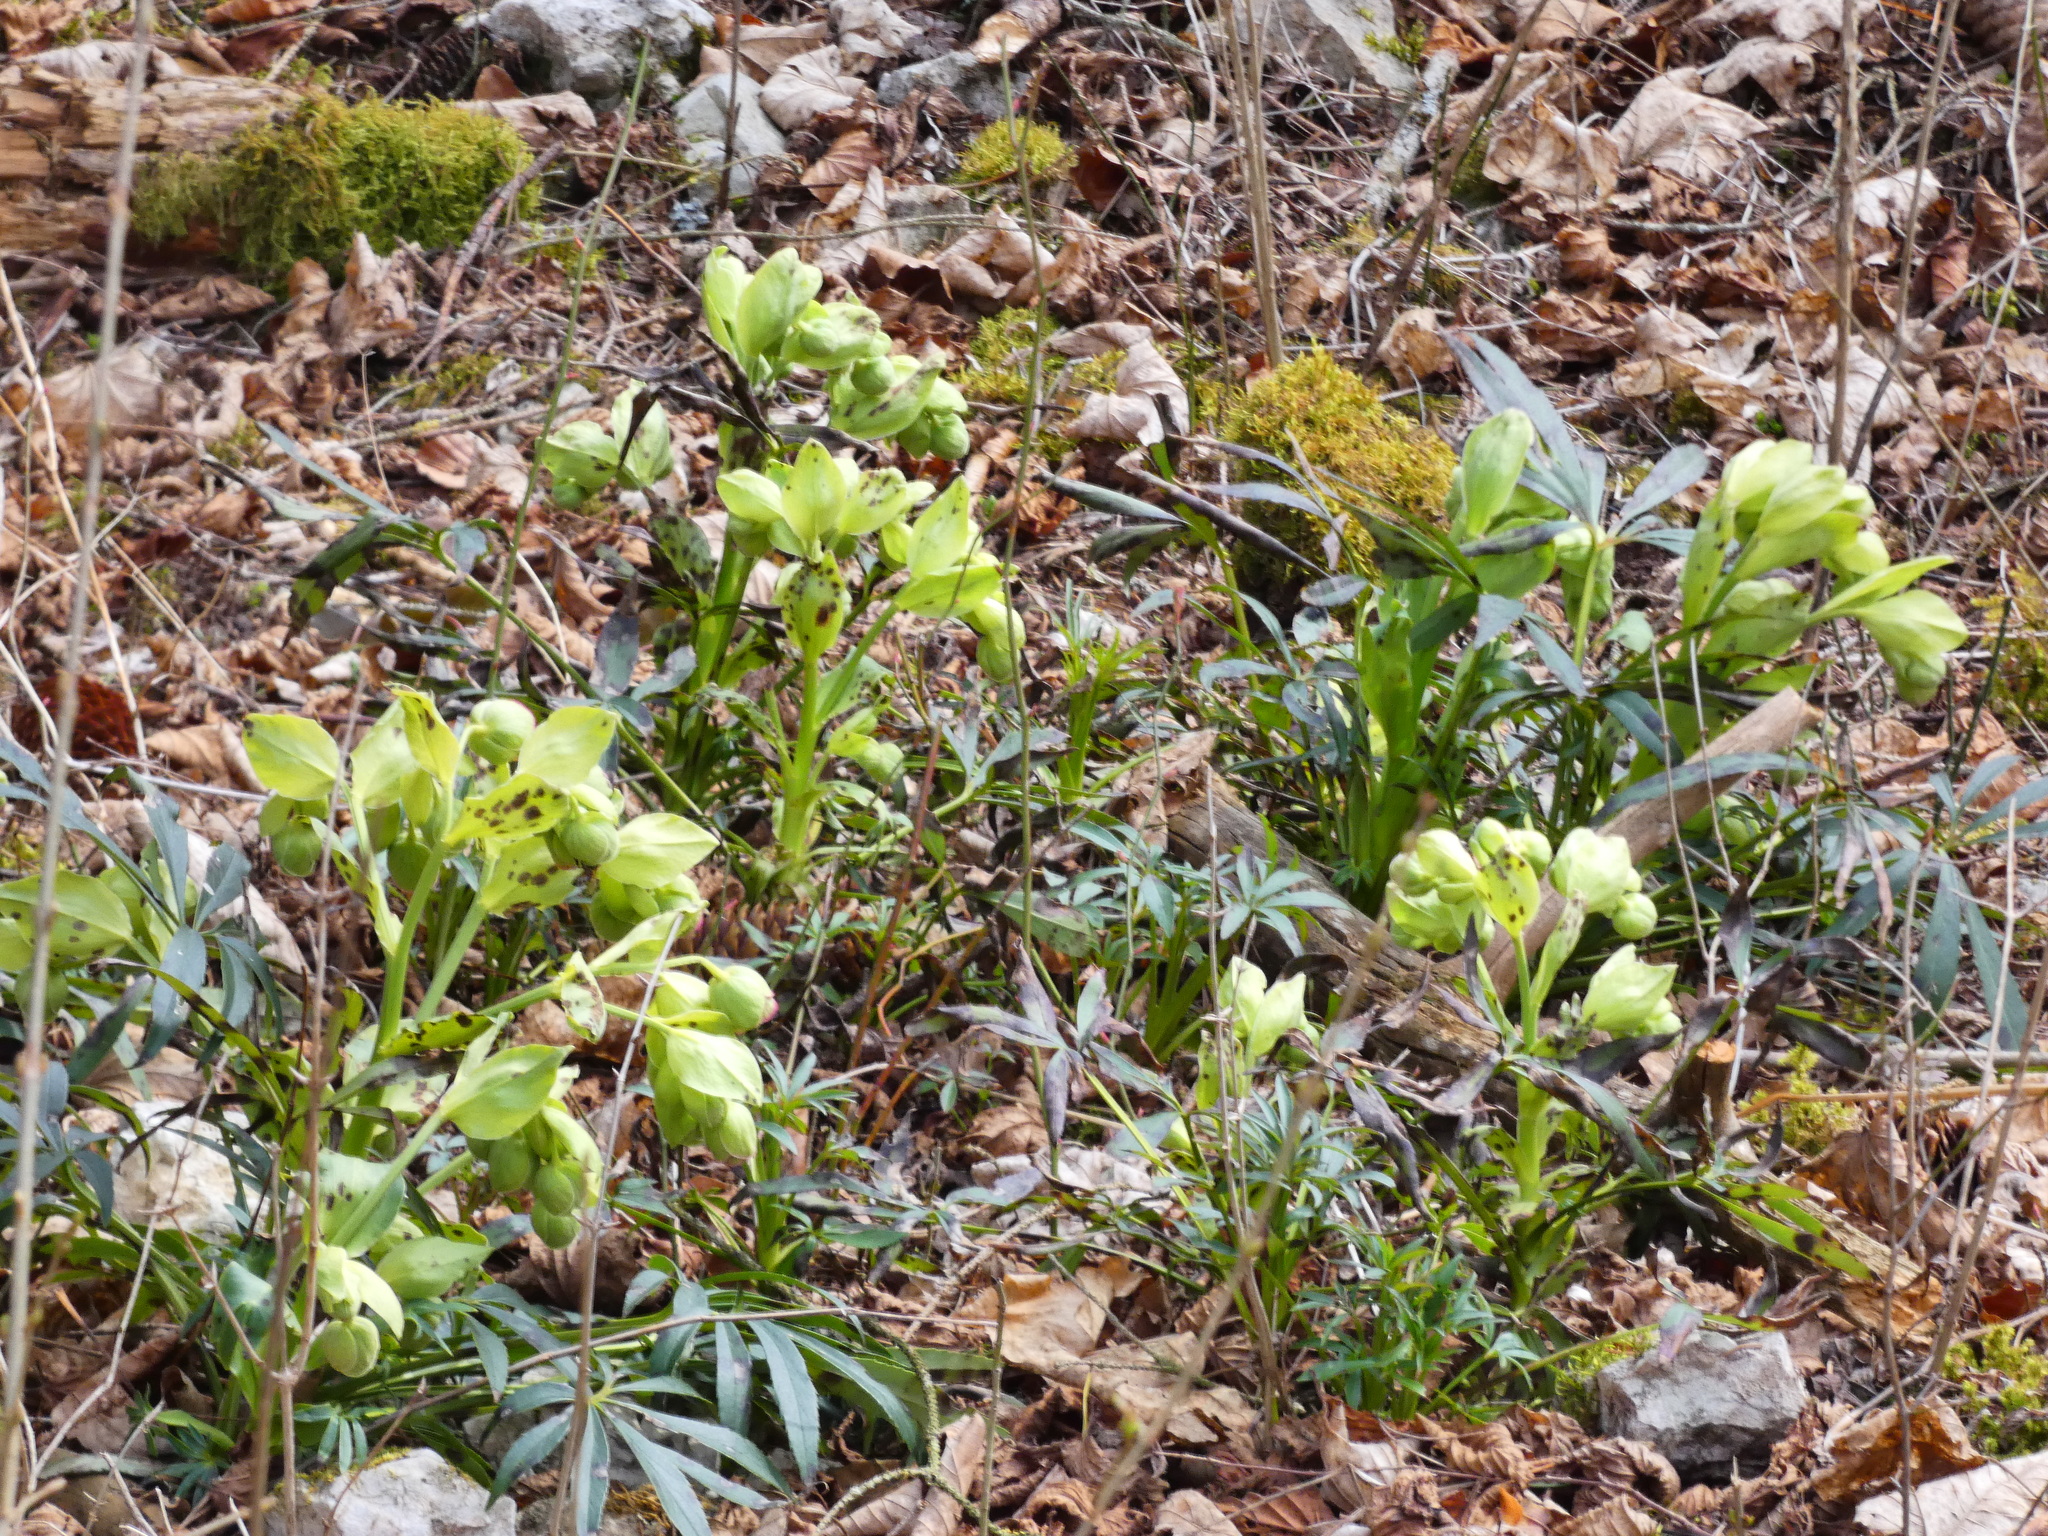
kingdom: Plantae
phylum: Tracheophyta
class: Magnoliopsida
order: Ranunculales
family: Ranunculaceae
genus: Helleborus
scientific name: Helleborus foetidus
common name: Stinking hellebore
